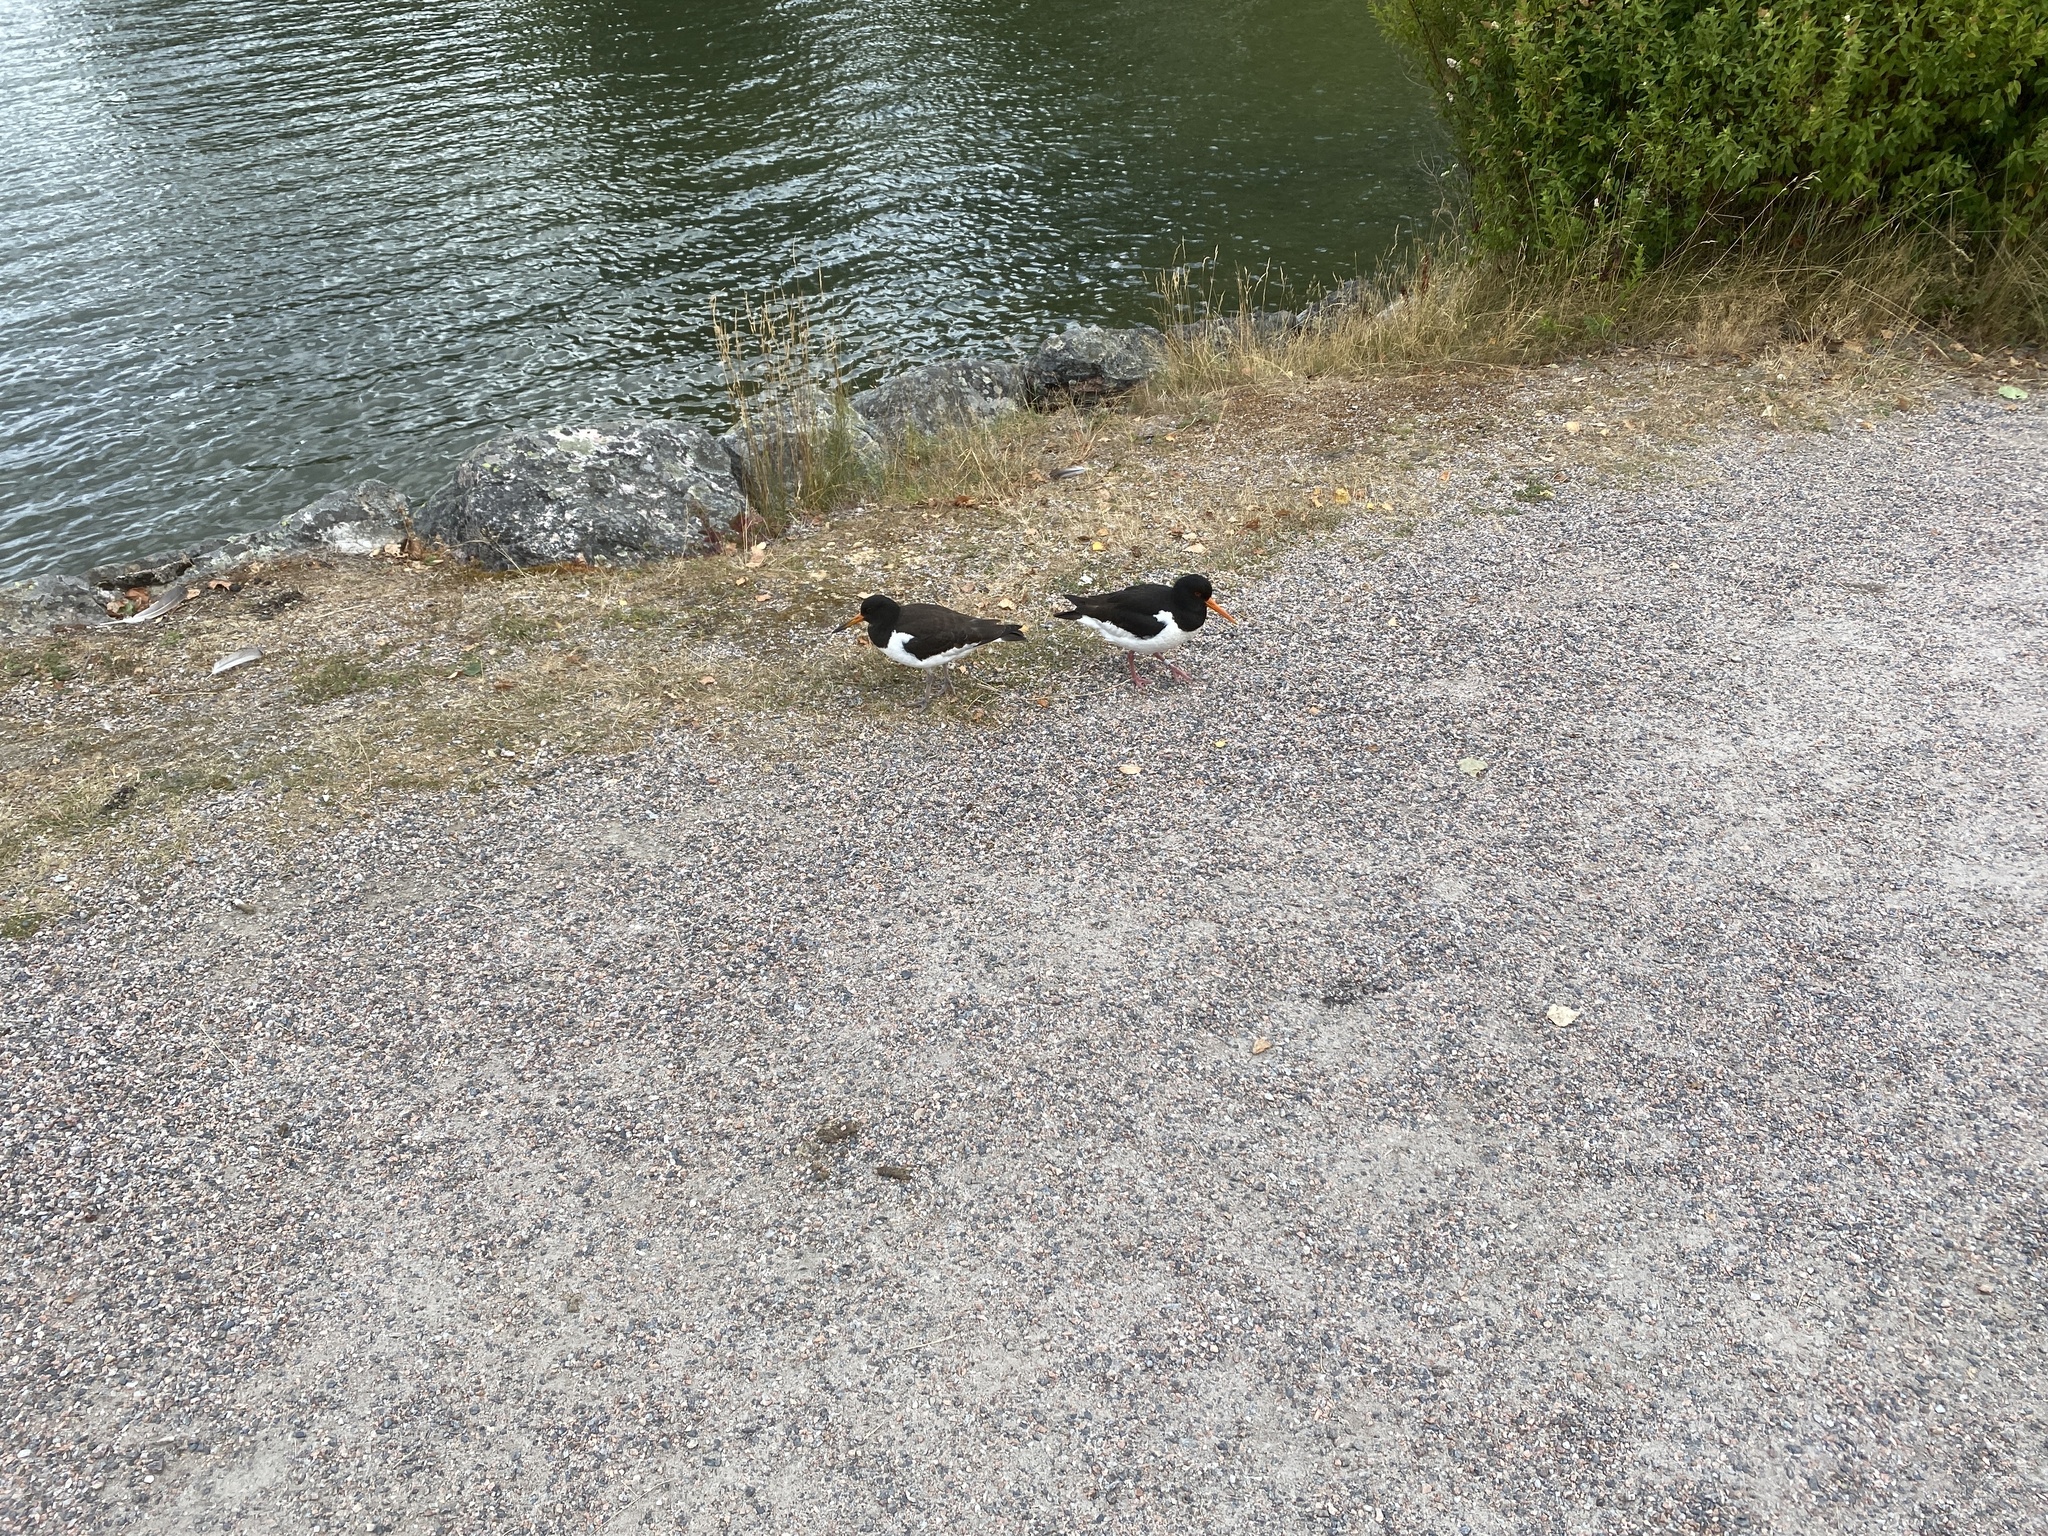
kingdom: Animalia
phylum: Chordata
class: Aves
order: Charadriiformes
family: Haematopodidae
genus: Haematopus
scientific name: Haematopus ostralegus
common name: Eurasian oystercatcher
